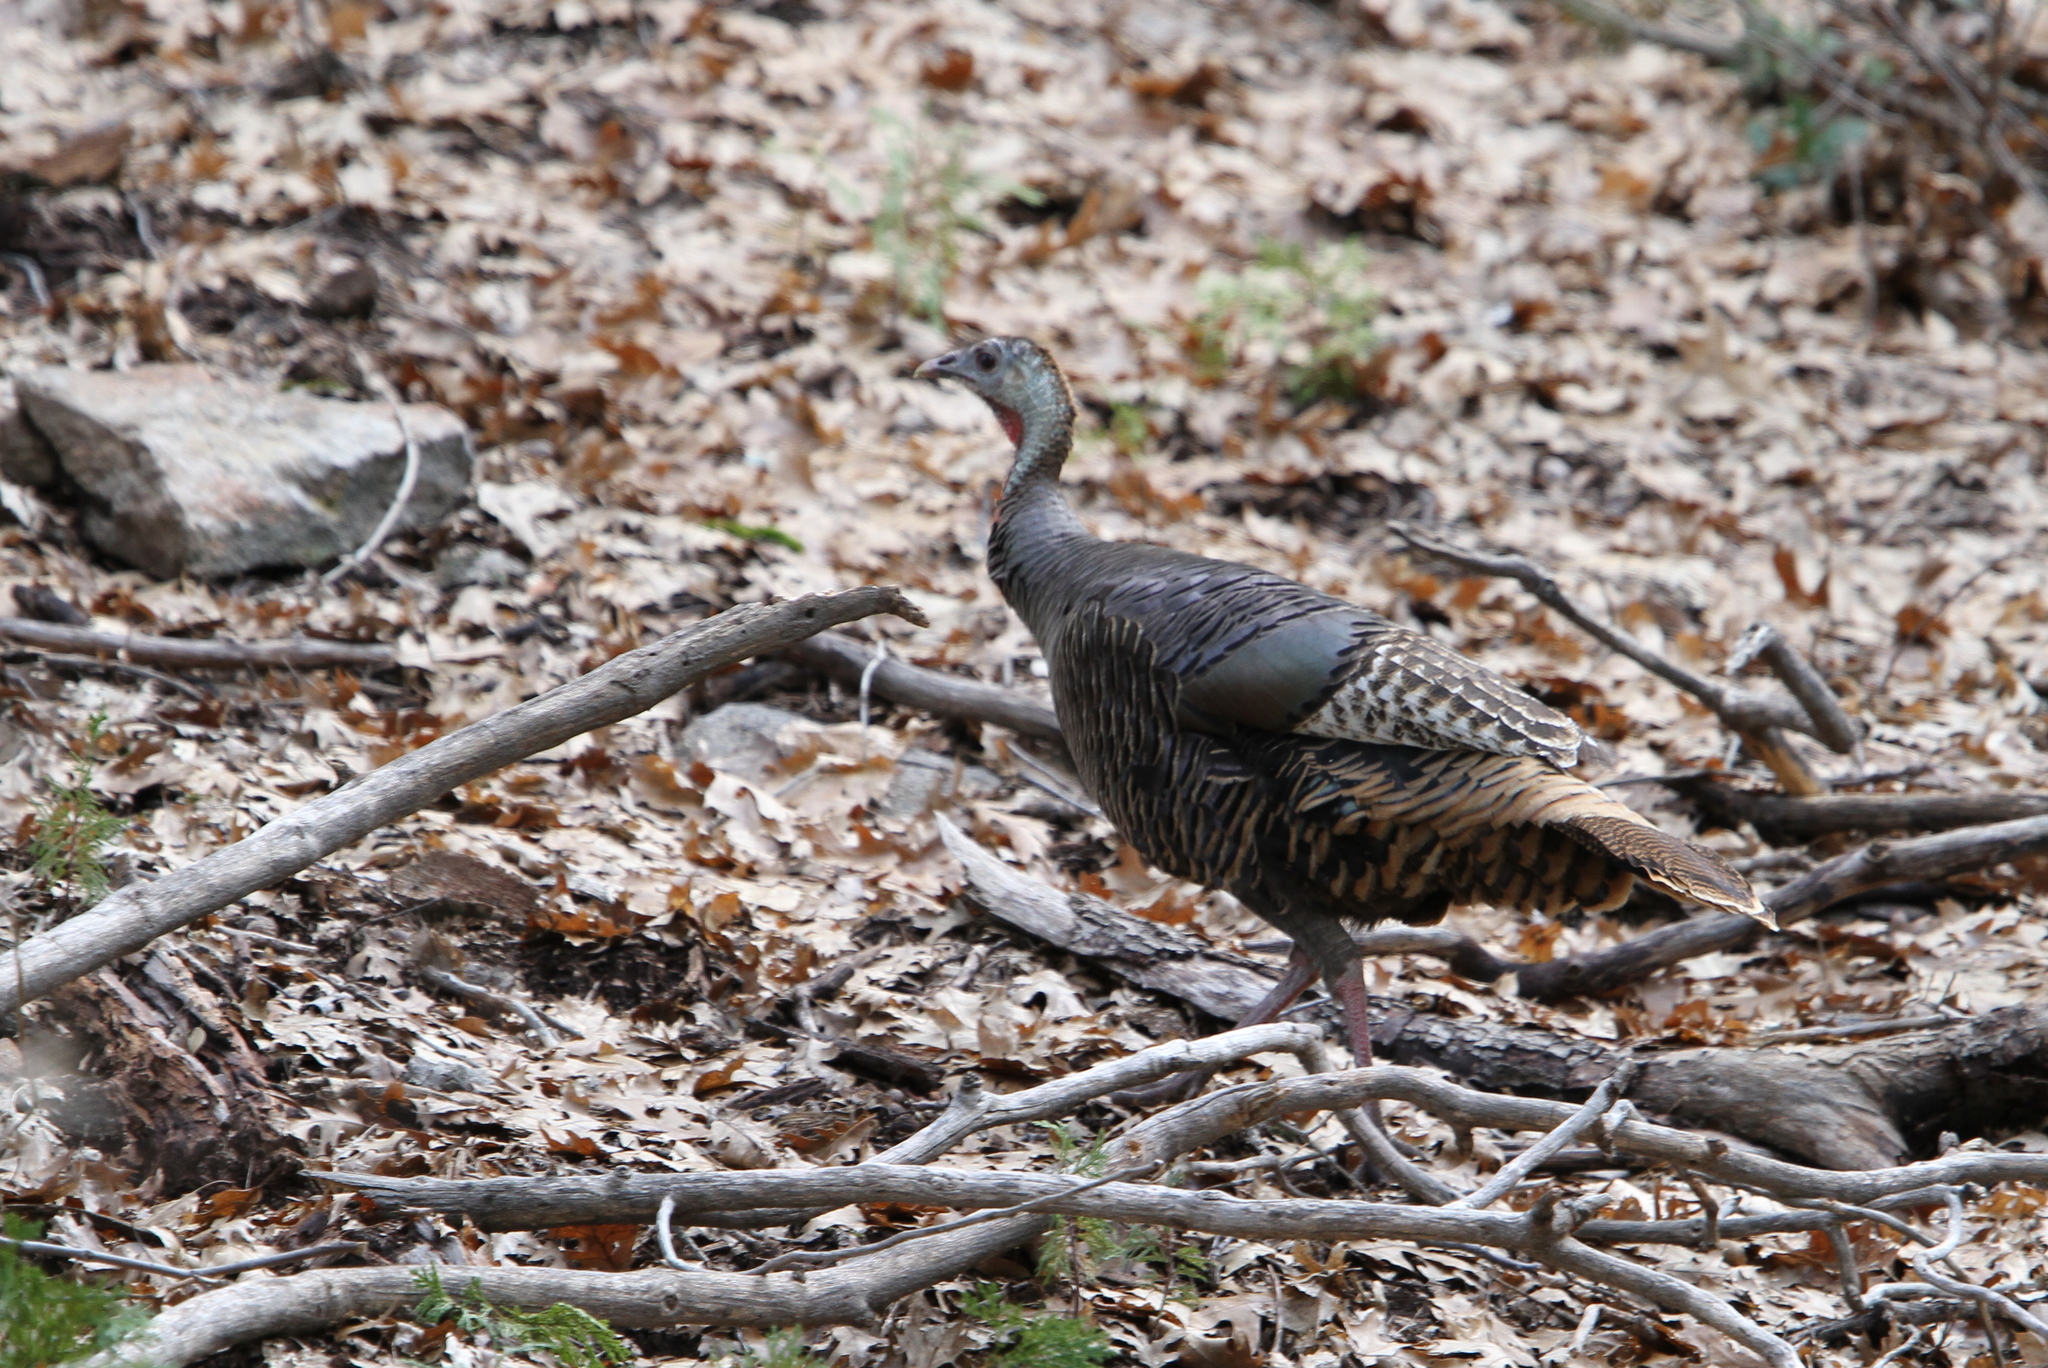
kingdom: Animalia
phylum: Chordata
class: Aves
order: Galliformes
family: Phasianidae
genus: Meleagris
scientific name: Meleagris gallopavo
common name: Wild turkey
